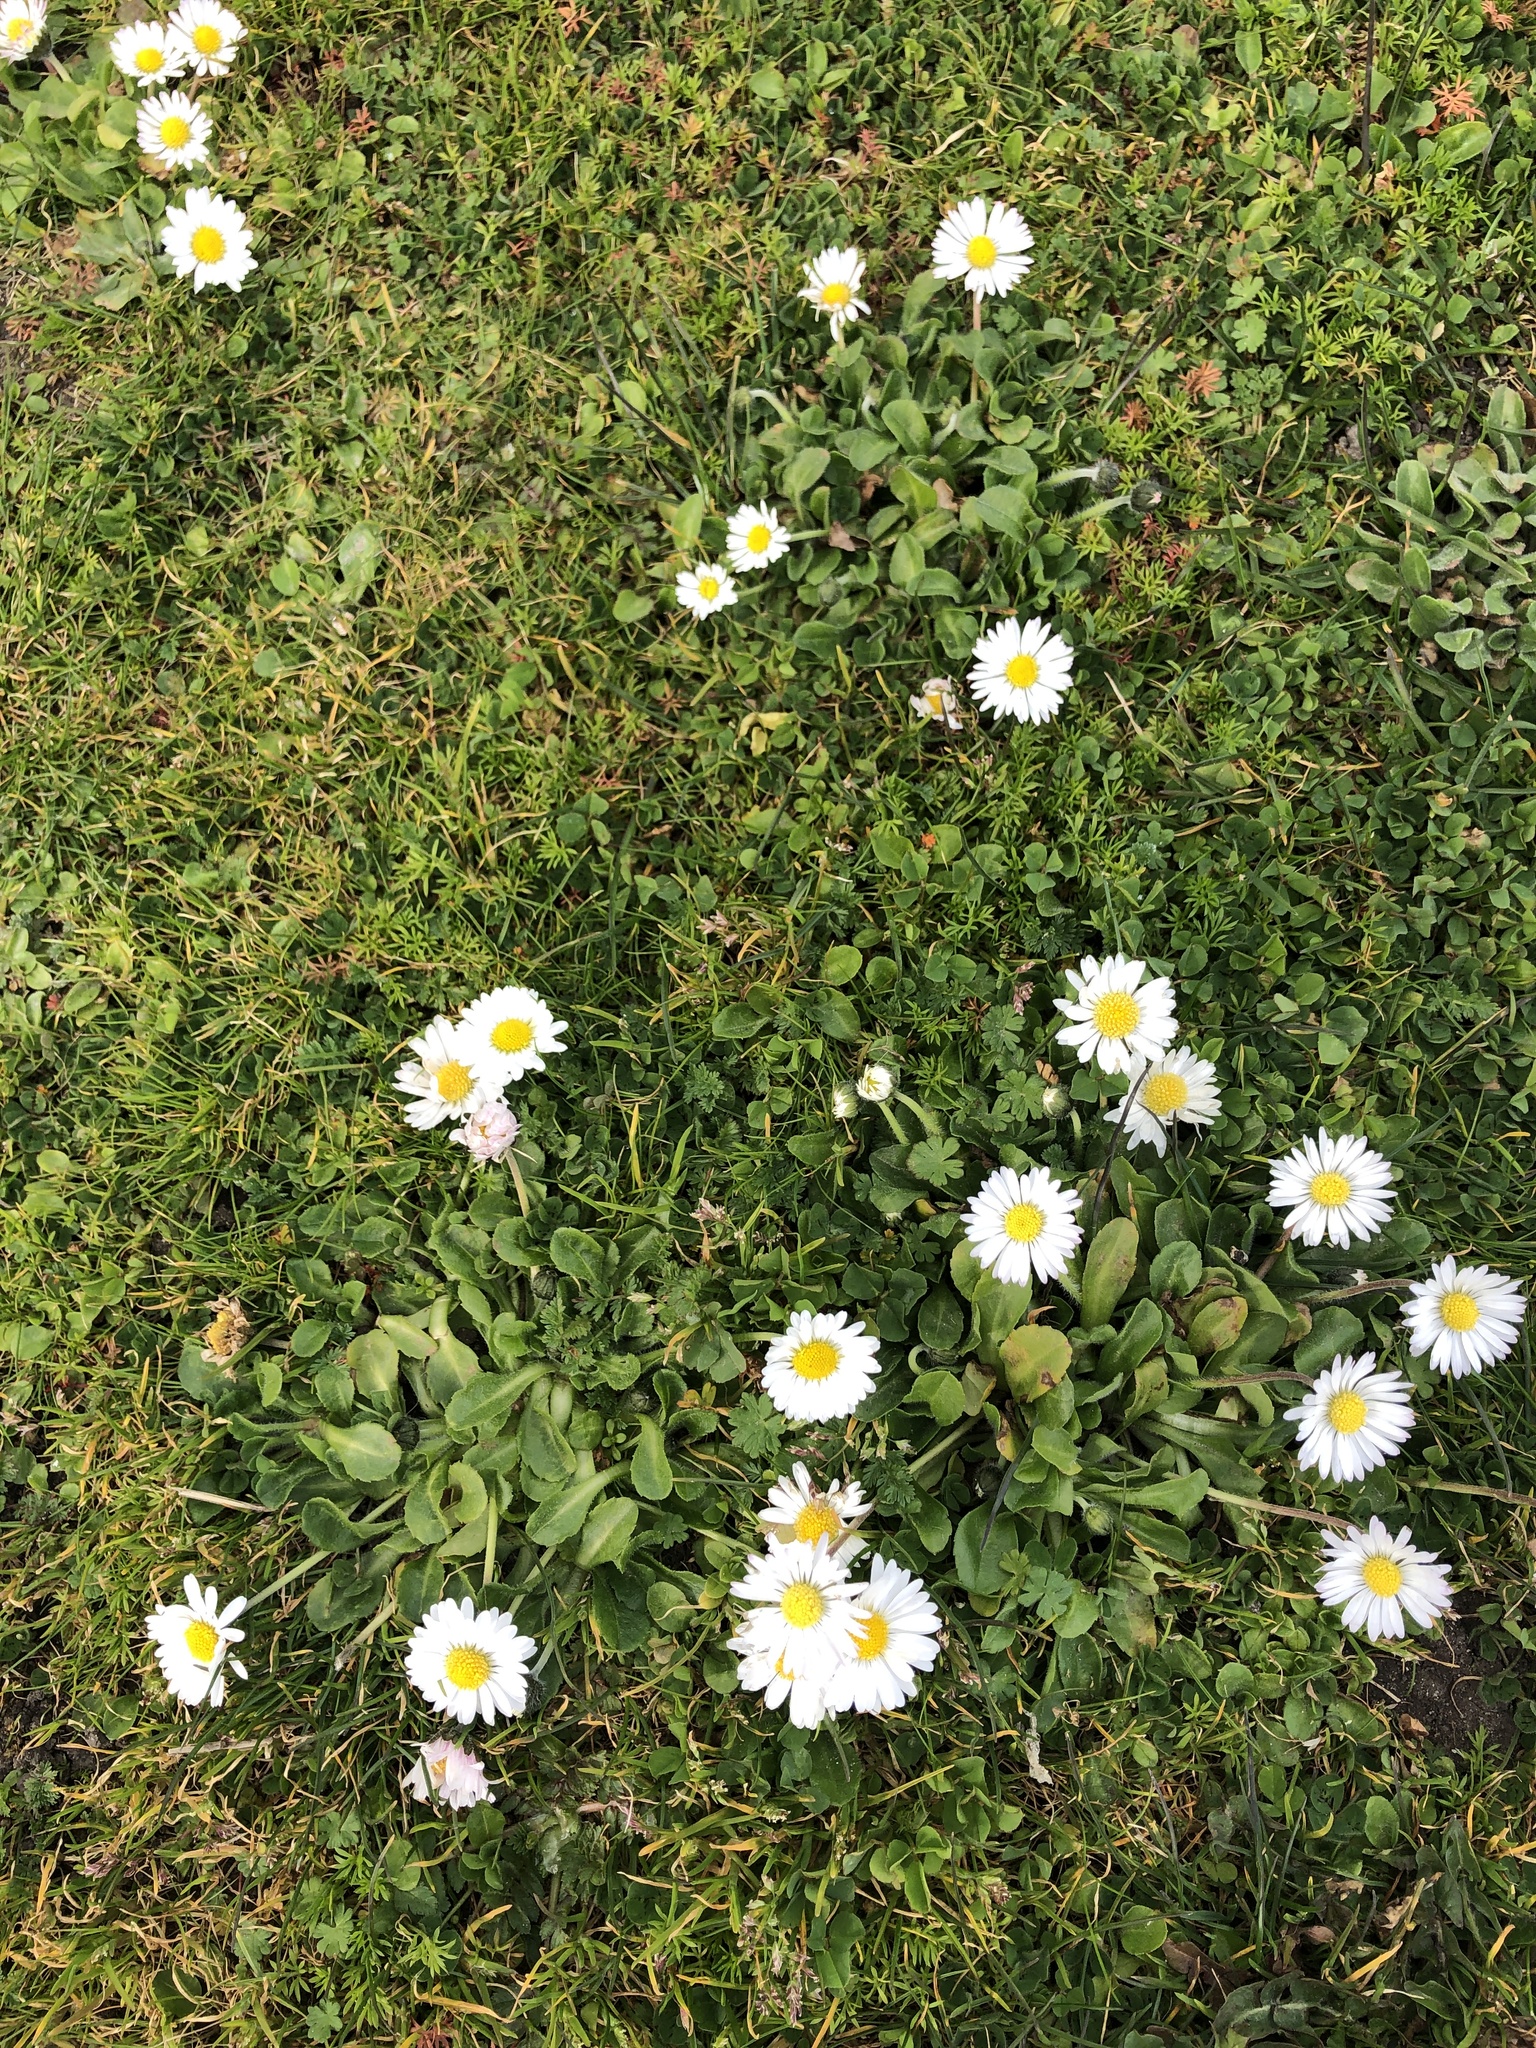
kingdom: Plantae
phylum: Tracheophyta
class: Magnoliopsida
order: Asterales
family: Asteraceae
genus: Bellis
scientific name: Bellis perennis
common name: Lawndaisy
